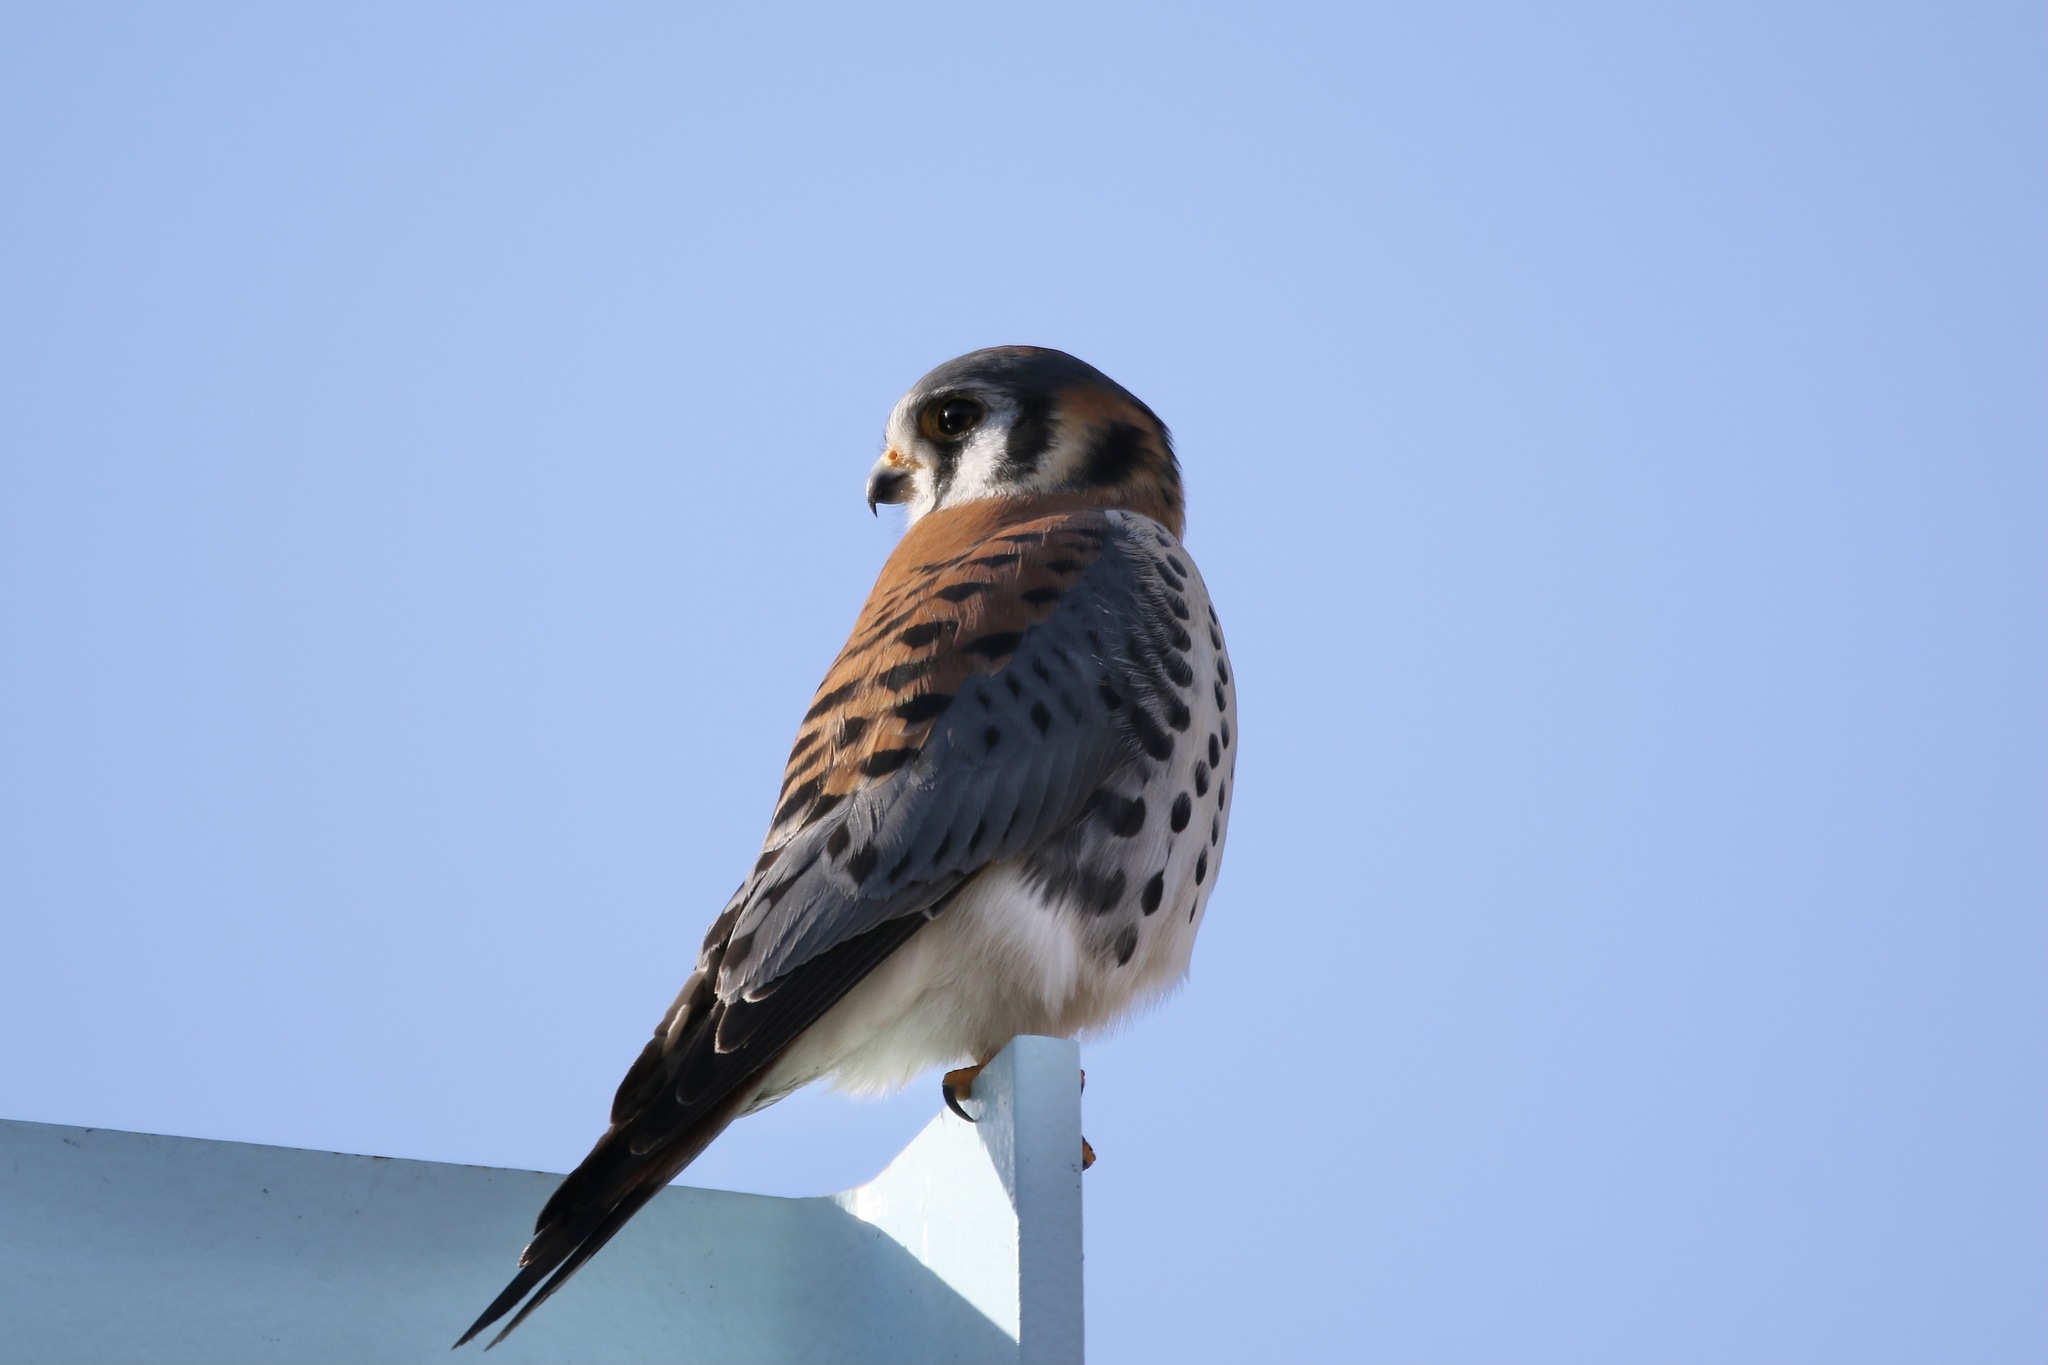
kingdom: Animalia
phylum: Chordata
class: Aves
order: Falconiformes
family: Falconidae
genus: Falco
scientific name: Falco sparverius
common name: American kestrel
